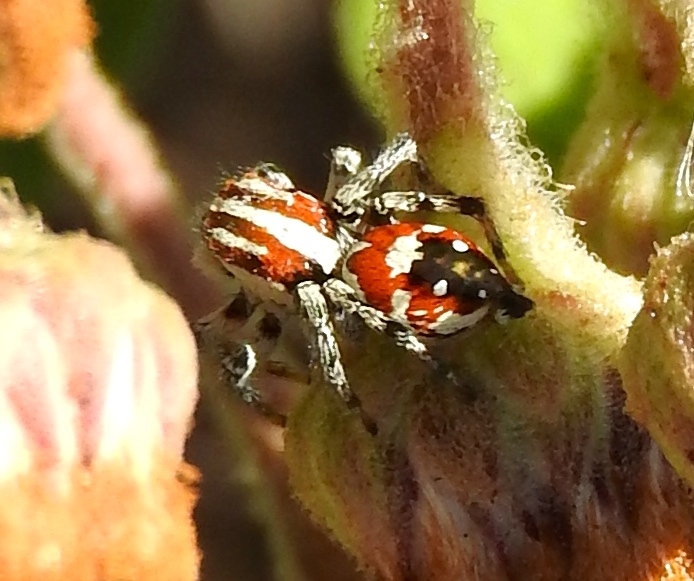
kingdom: Animalia
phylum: Arthropoda
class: Arachnida
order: Araneae
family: Salticidae
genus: Nycerella
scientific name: Nycerella delecta
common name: Jumping spiders
